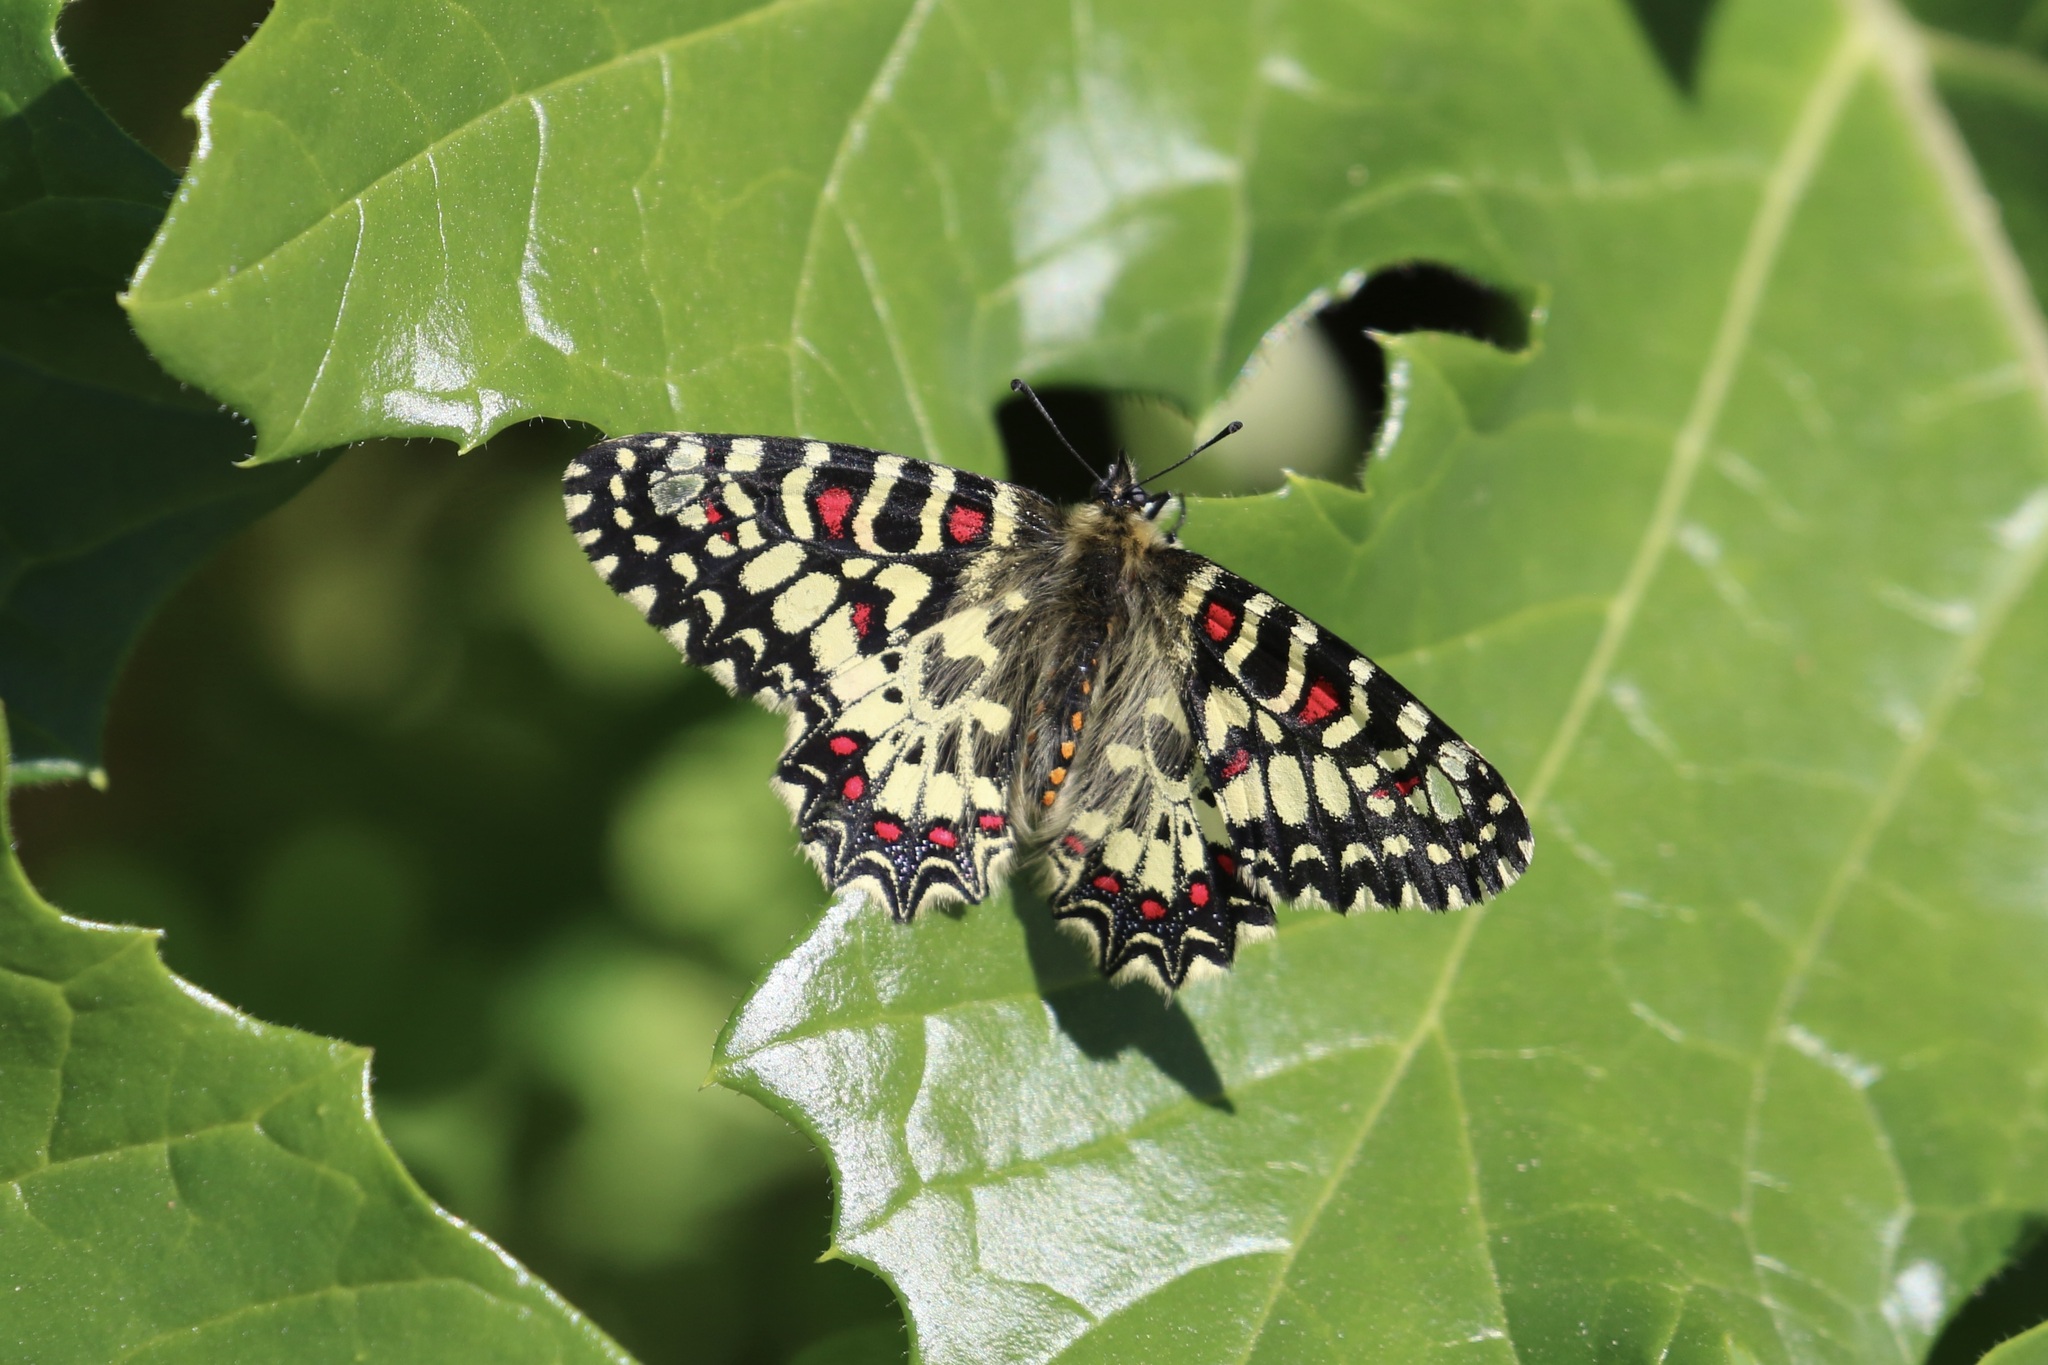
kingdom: Animalia
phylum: Arthropoda
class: Insecta
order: Lepidoptera
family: Papilionidae
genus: Zerynthia
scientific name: Zerynthia rumina
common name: Spanish festoon
